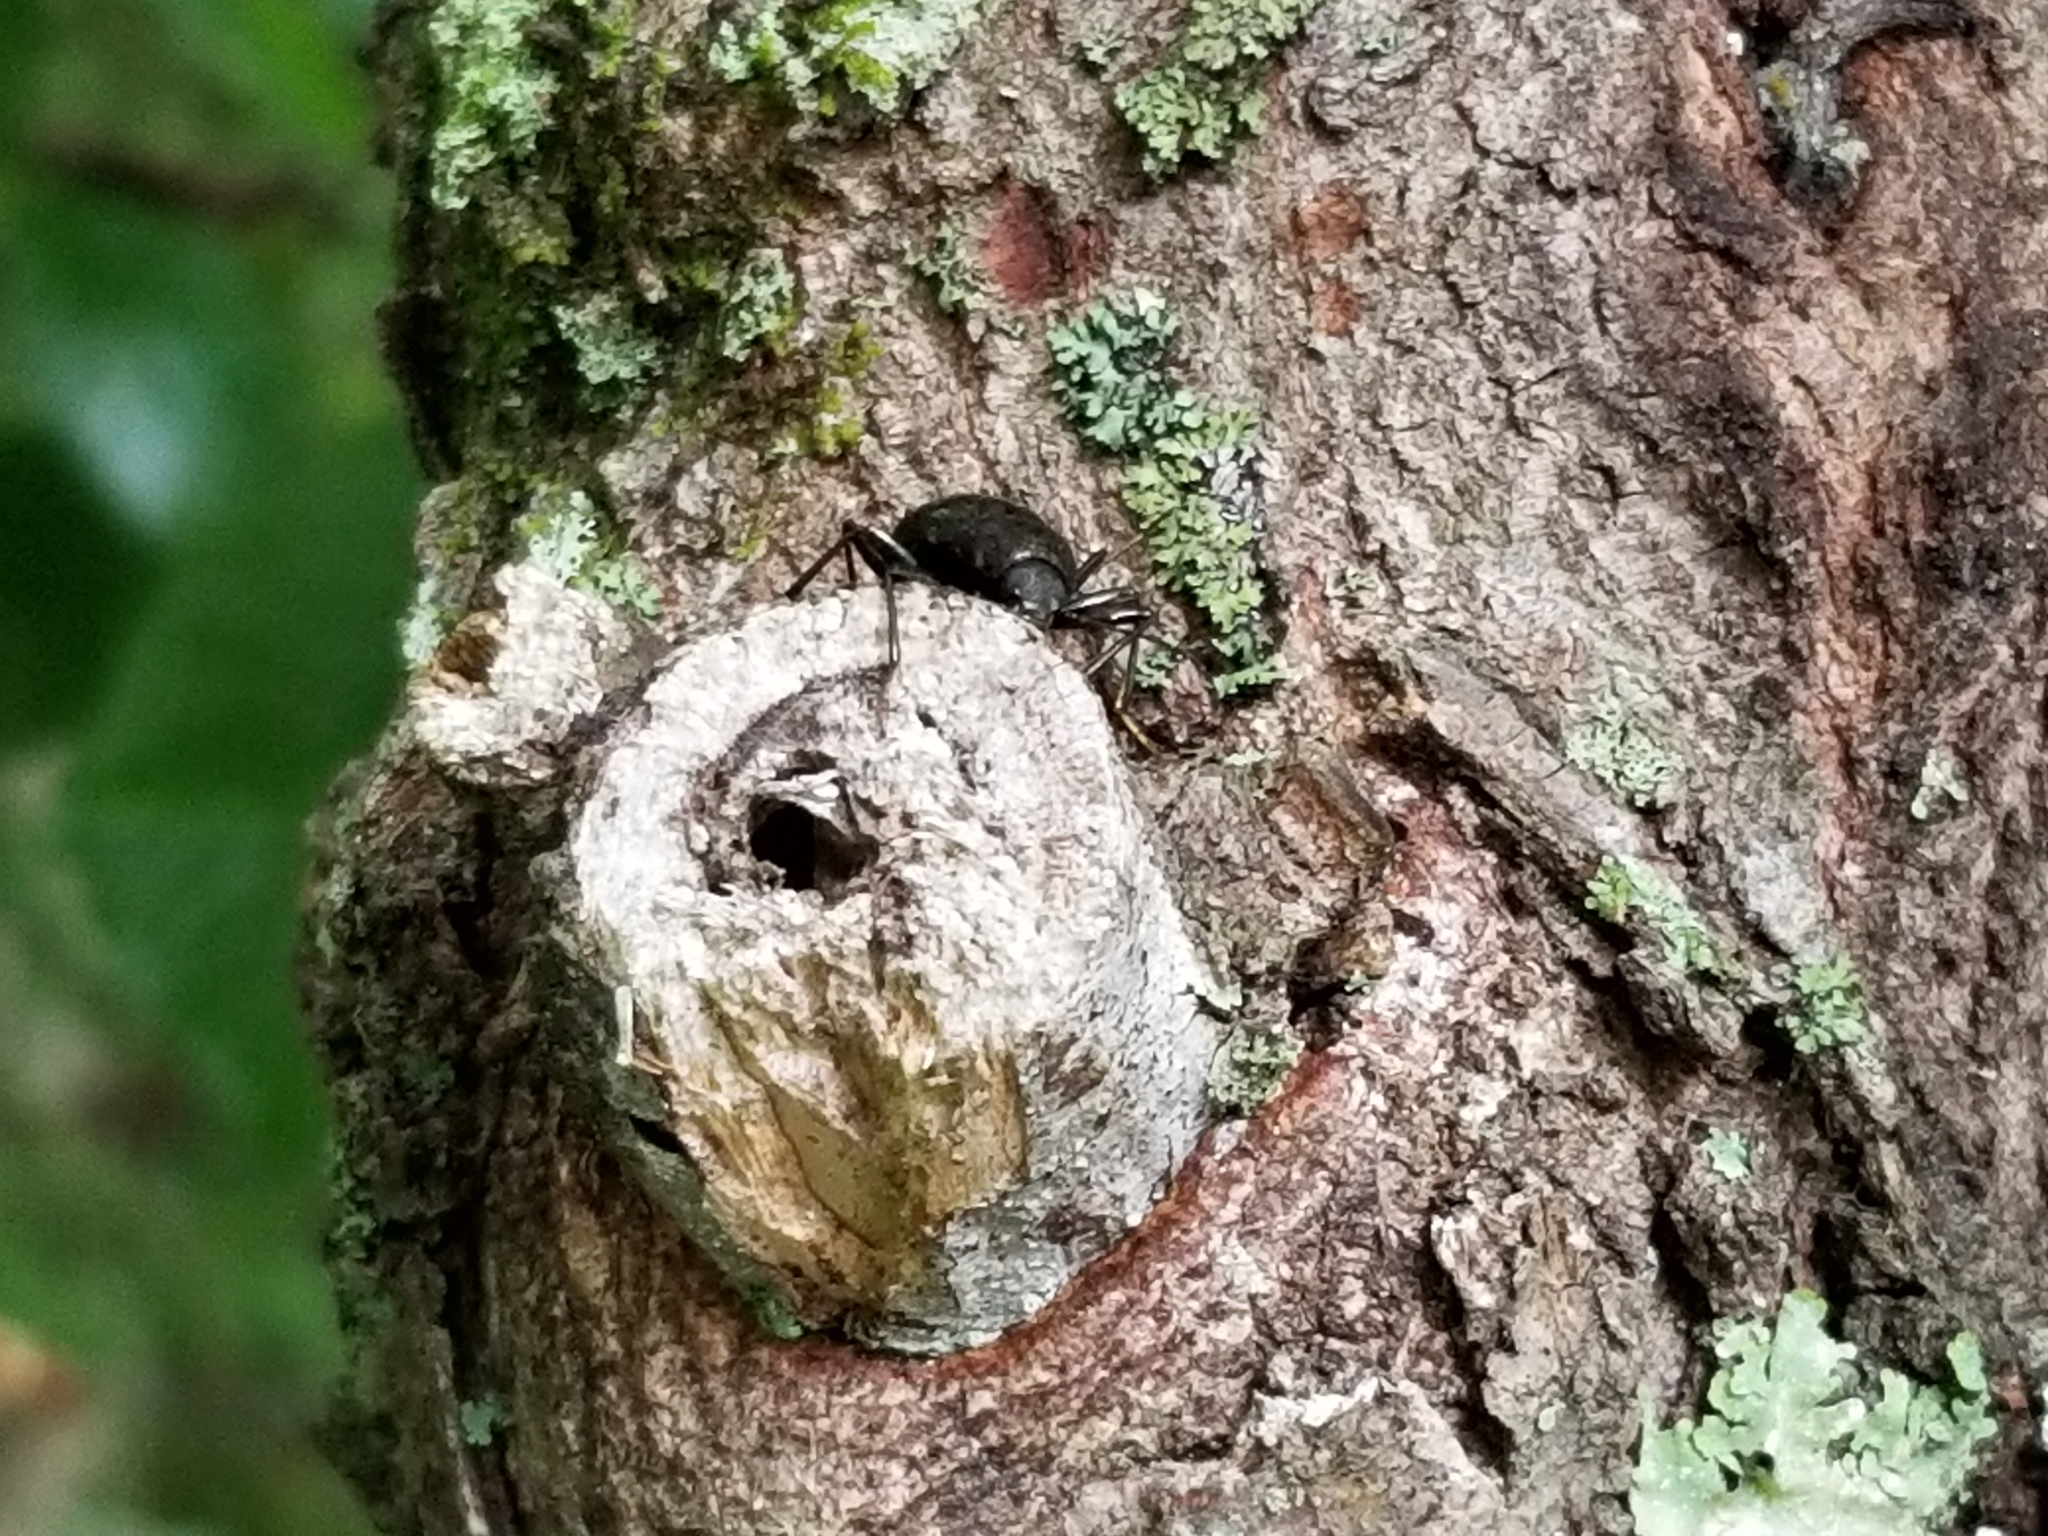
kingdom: Animalia
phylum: Arthropoda
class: Insecta
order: Coleoptera
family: Tenebrionidae
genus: Meracantha
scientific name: Meracantha contracta
